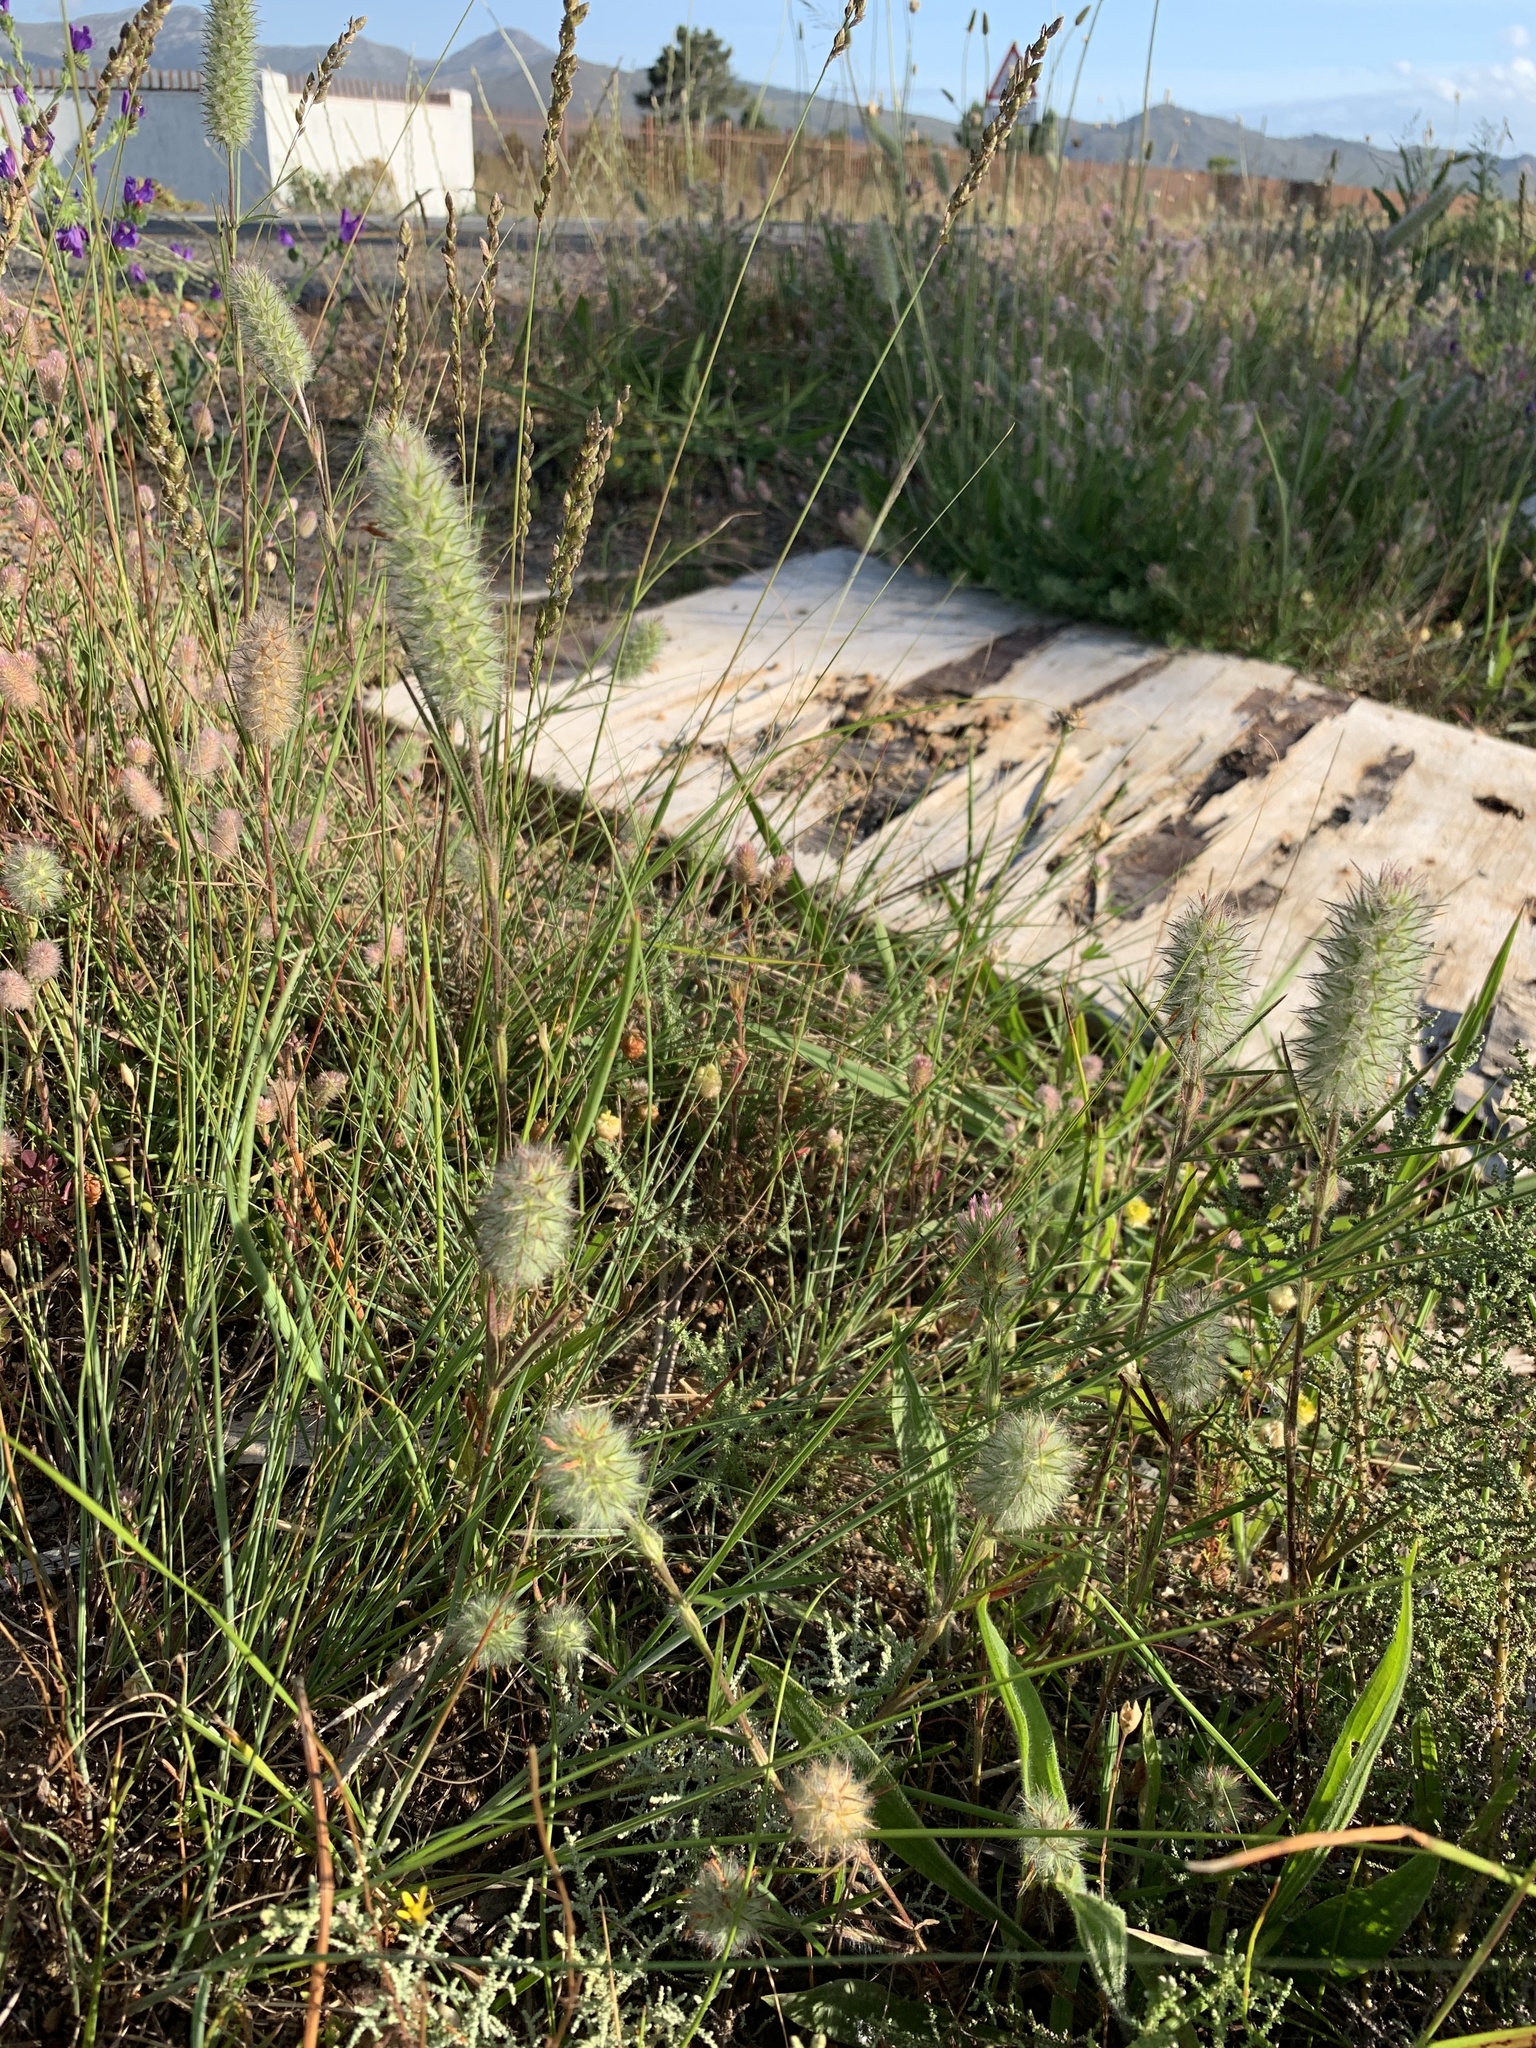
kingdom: Plantae
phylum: Tracheophyta
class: Magnoliopsida
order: Fabales
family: Fabaceae
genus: Trifolium
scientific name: Trifolium angustifolium
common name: Narrow clover
